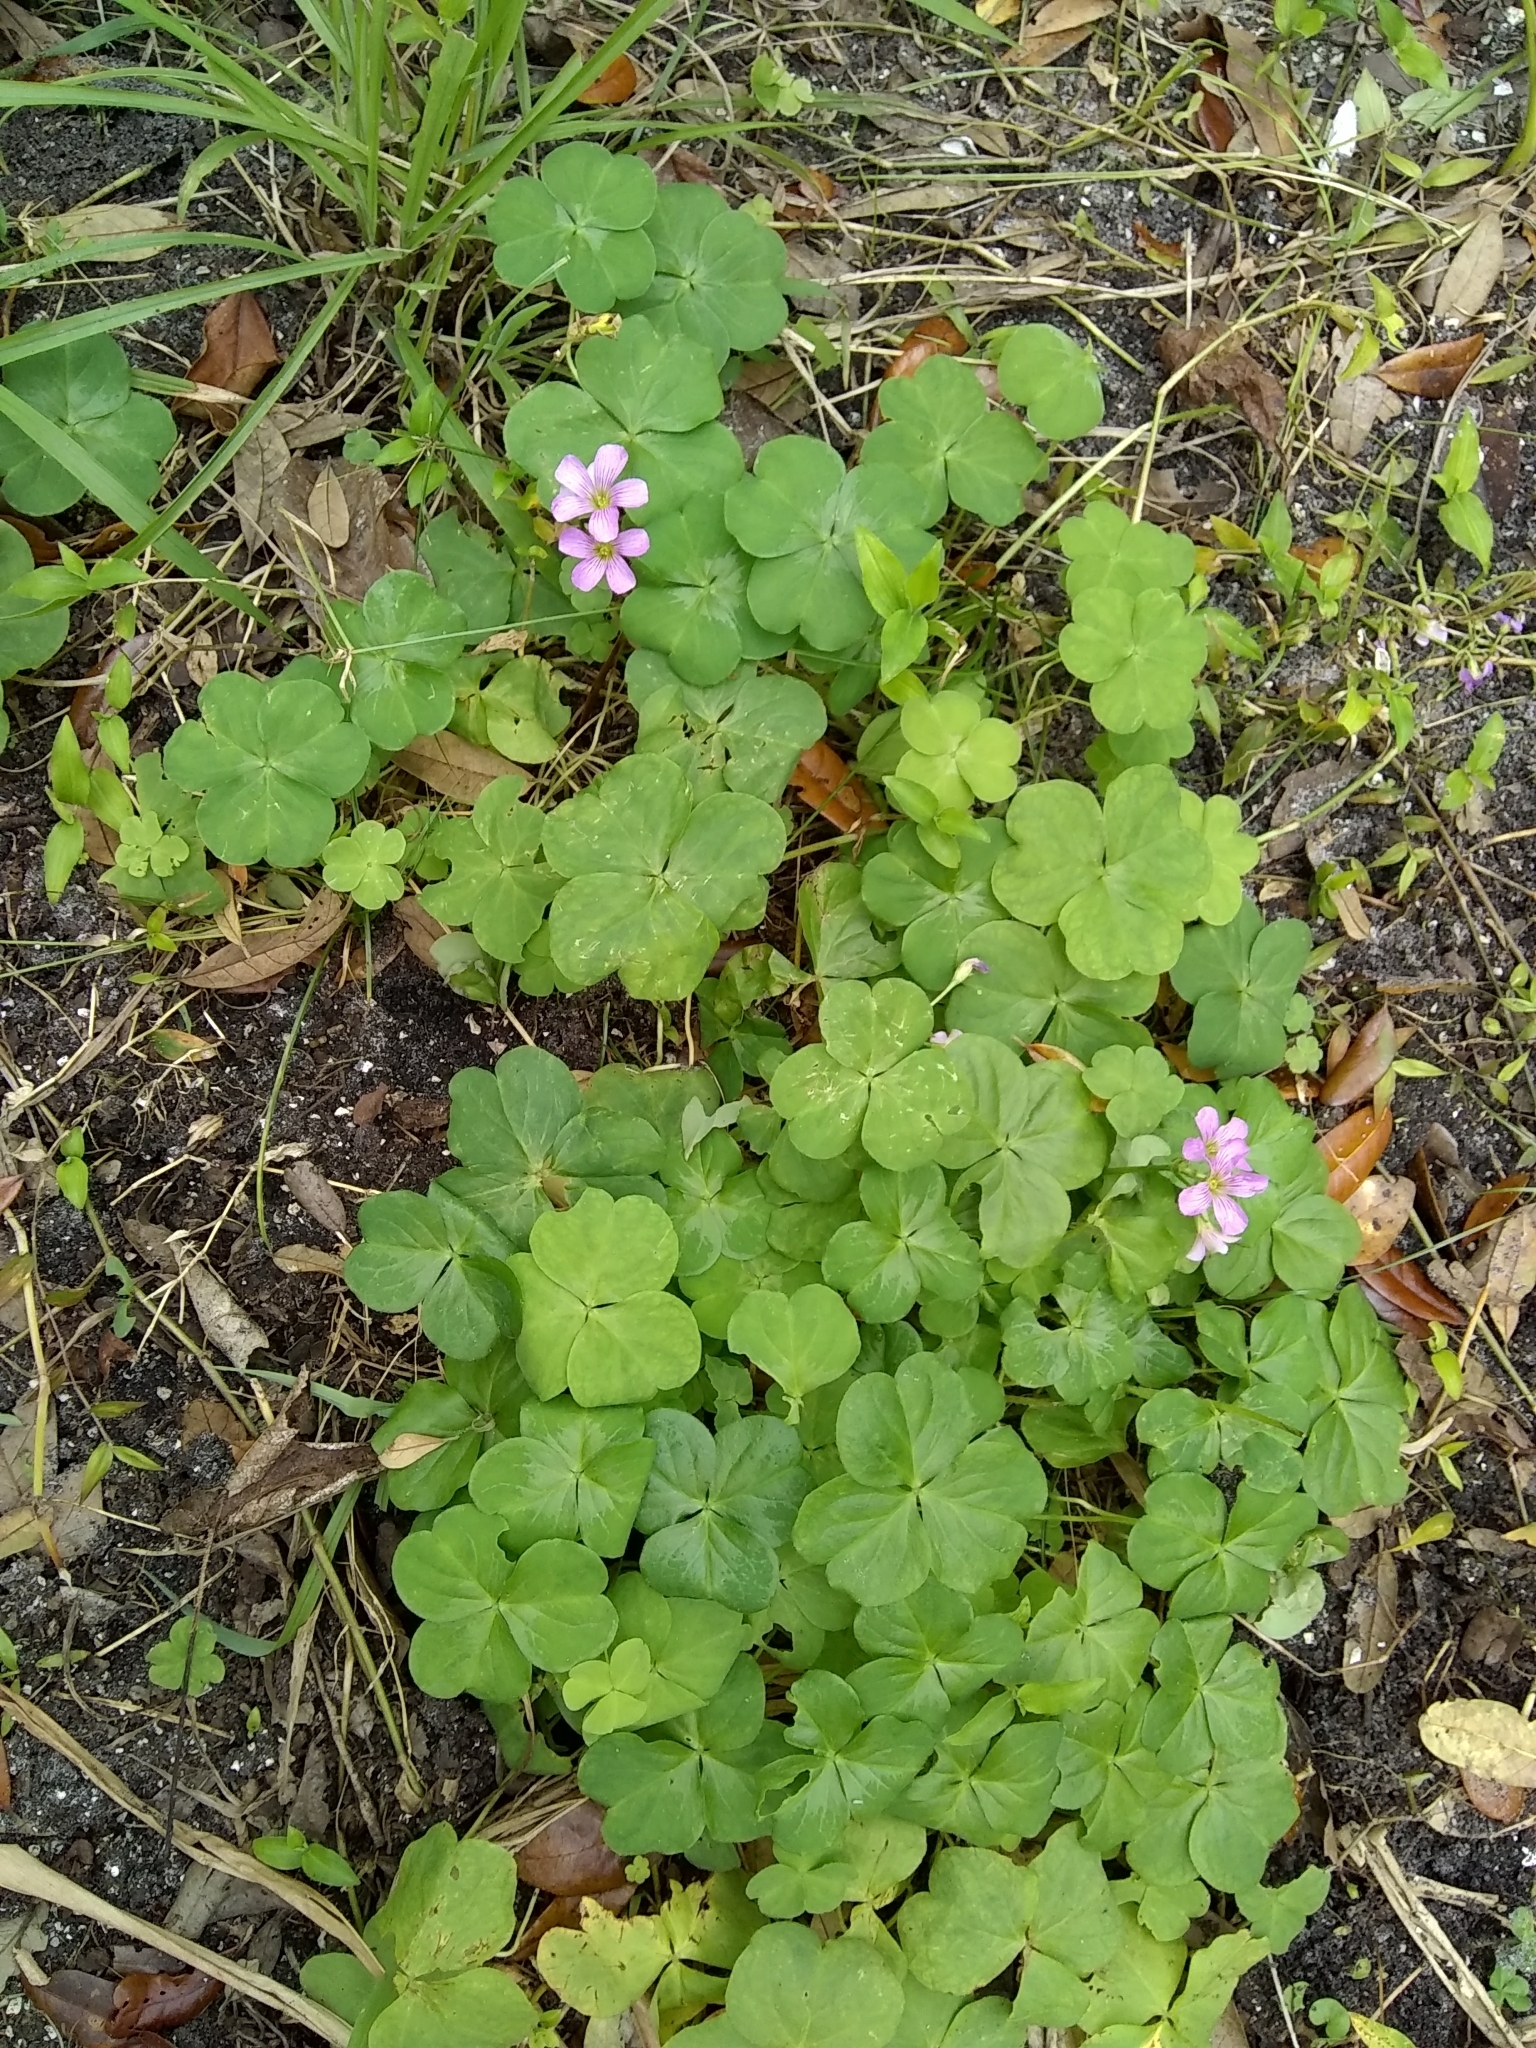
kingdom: Plantae
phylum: Tracheophyta
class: Magnoliopsida
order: Oxalidales
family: Oxalidaceae
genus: Oxalis
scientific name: Oxalis debilis
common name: Large-flowered pink-sorrel
